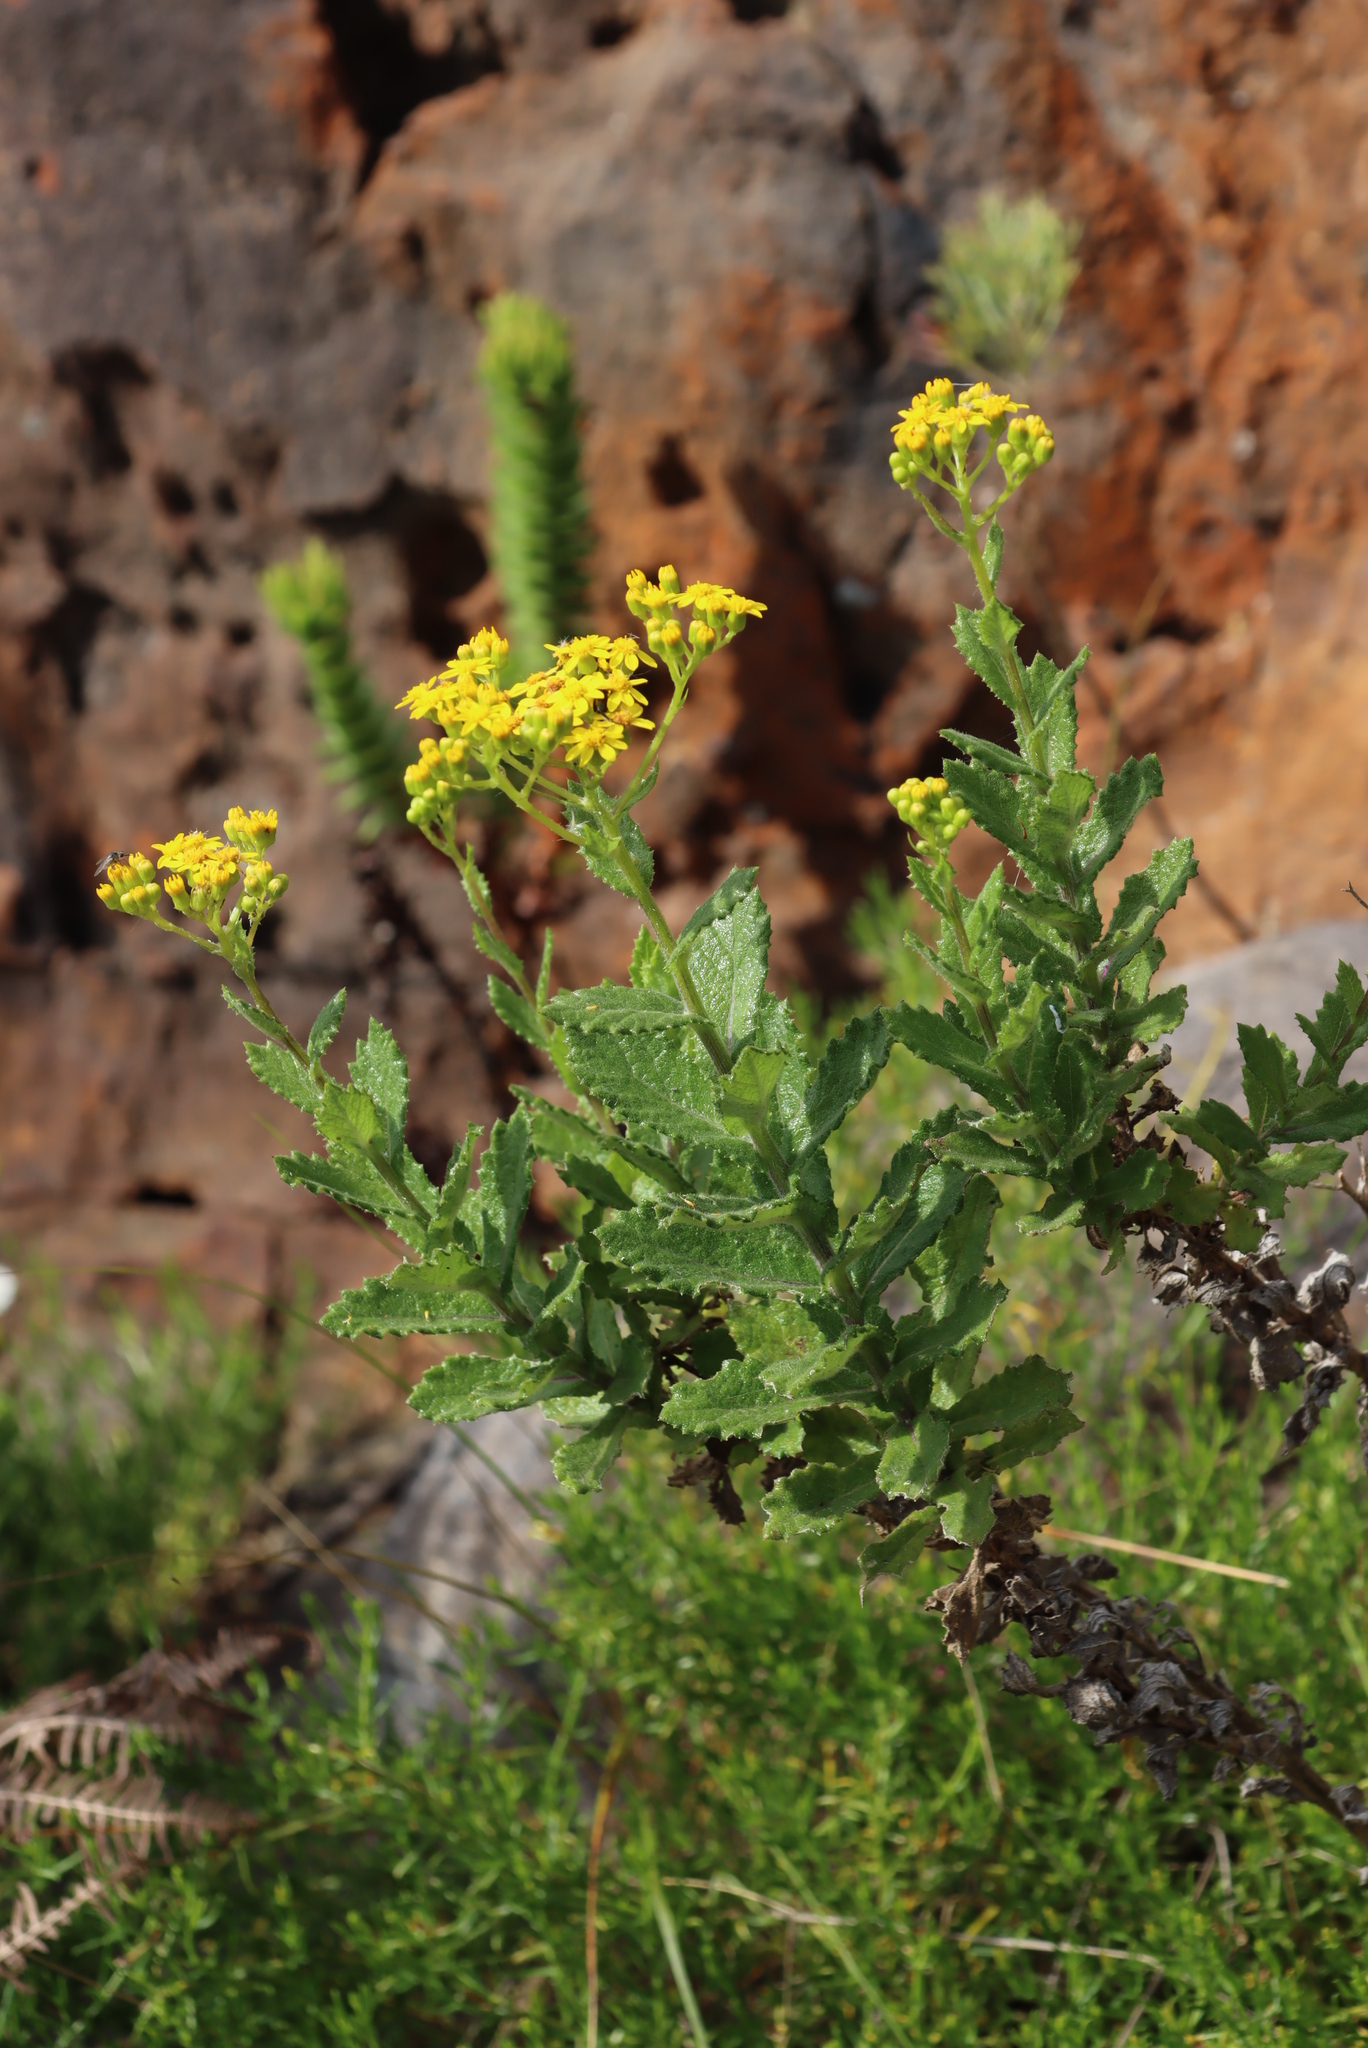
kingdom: Plantae
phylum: Tracheophyta
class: Magnoliopsida
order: Asterales
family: Asteraceae
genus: Senecio
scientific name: Senecio rigidus
